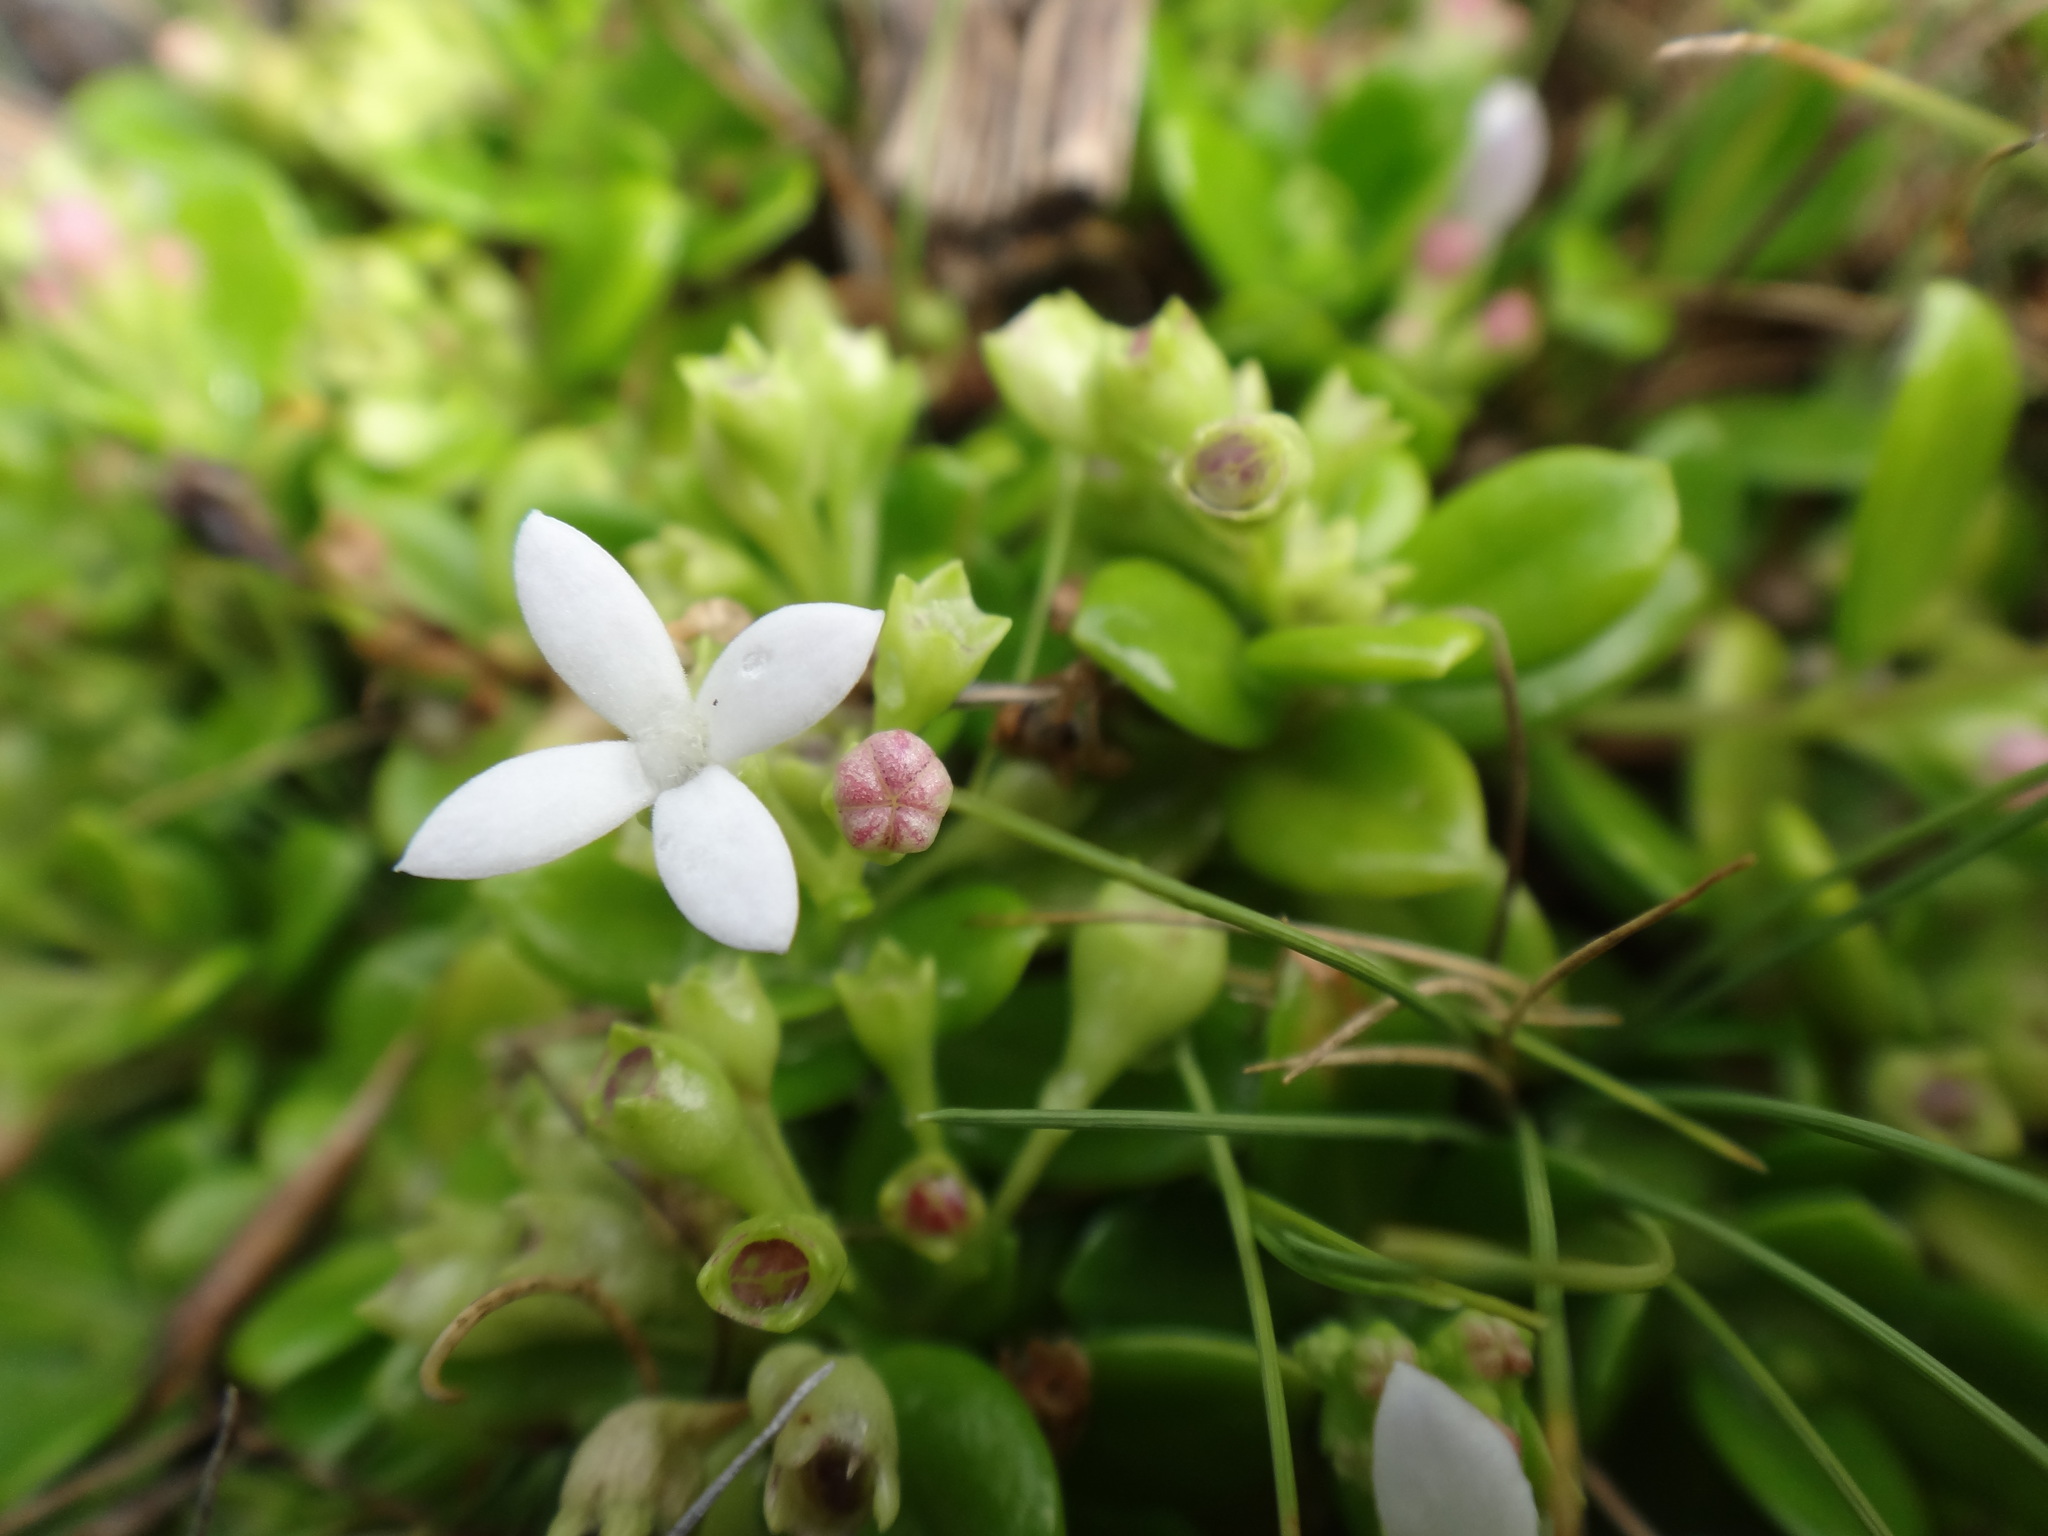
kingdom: Plantae
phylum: Tracheophyta
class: Magnoliopsida
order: Gentianales
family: Rubiaceae
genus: Leptopetalum
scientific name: Leptopetalum strigulosum
